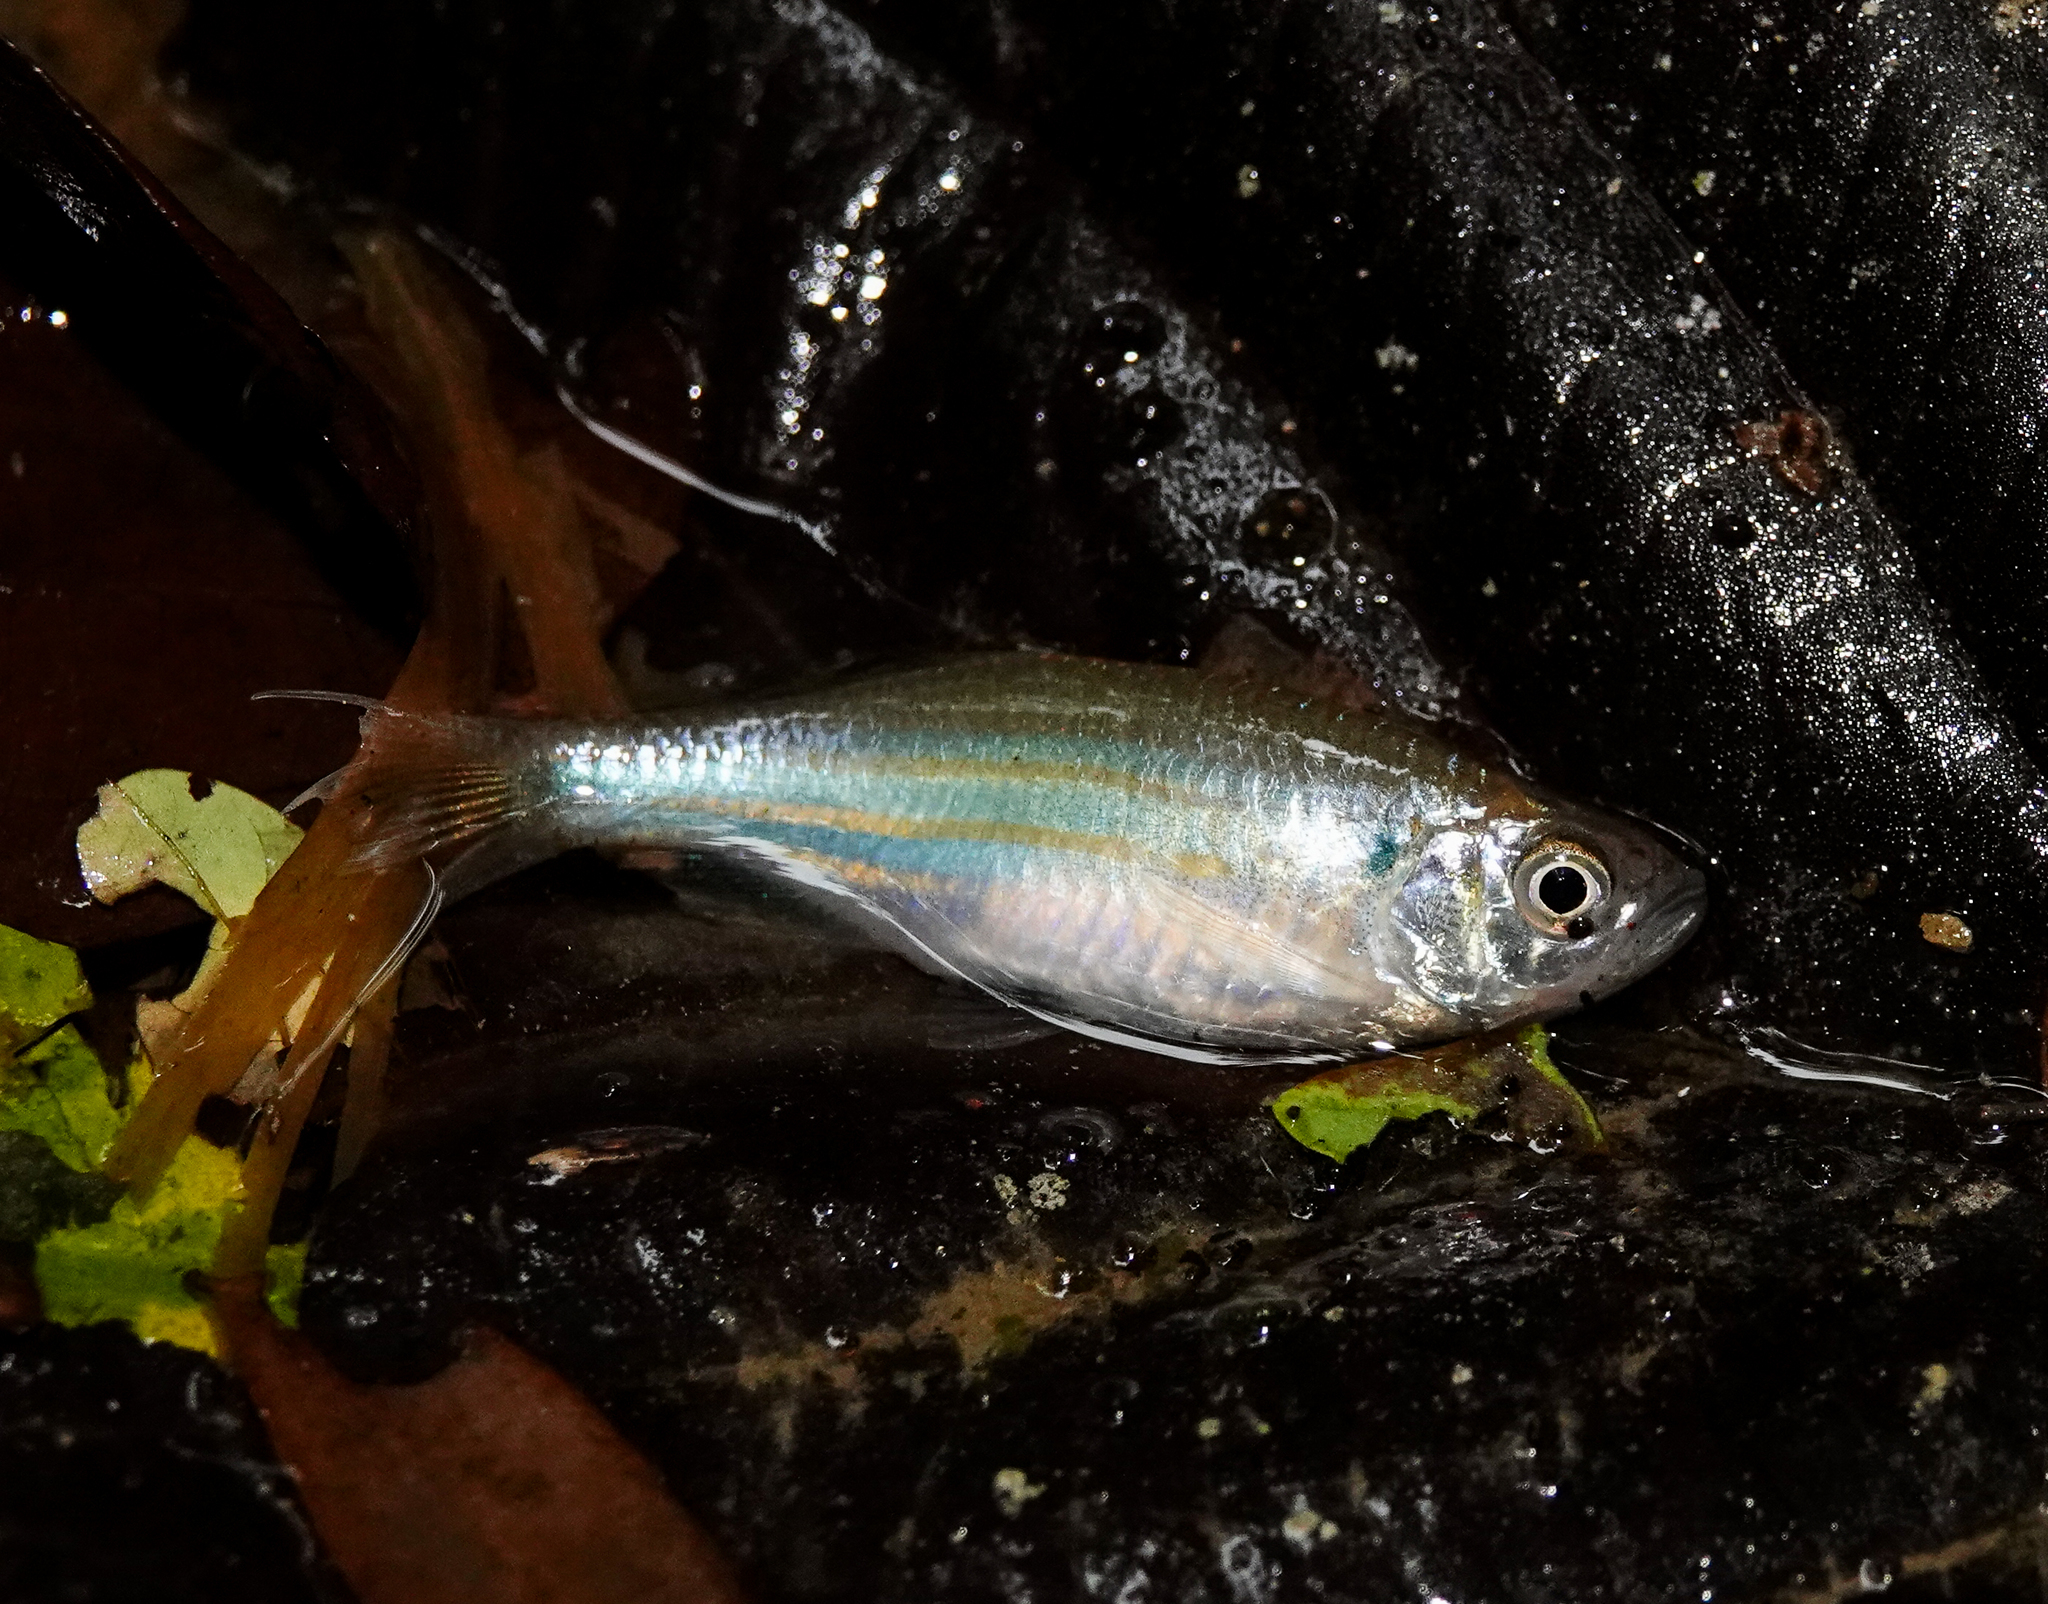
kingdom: Animalia
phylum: Chordata
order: Cypriniformes
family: Cyprinidae
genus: Devario
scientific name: Devario aequipinnatus
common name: Giant danio
